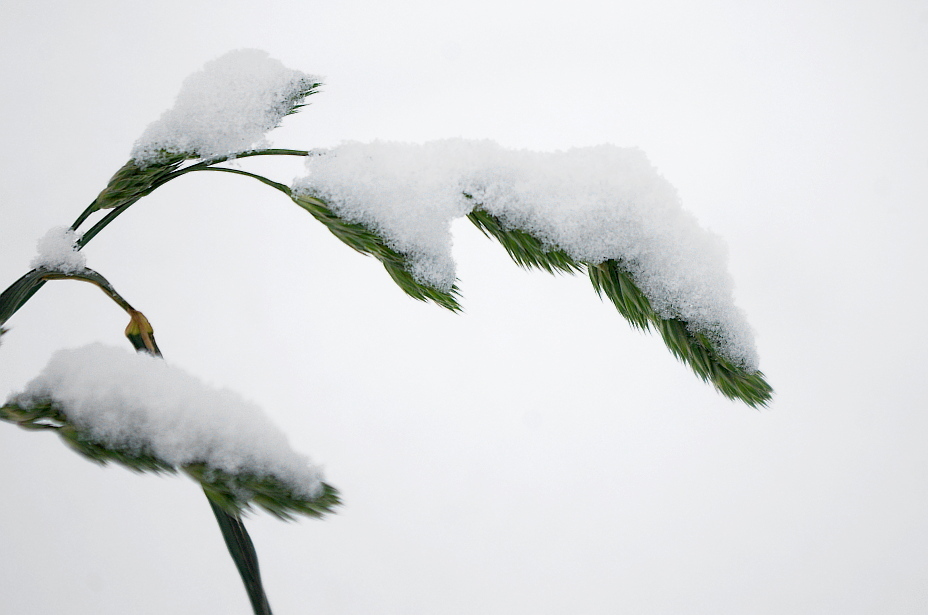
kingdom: Plantae
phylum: Tracheophyta
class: Liliopsida
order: Poales
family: Poaceae
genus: Dactylis
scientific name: Dactylis glomerata
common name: Orchardgrass
